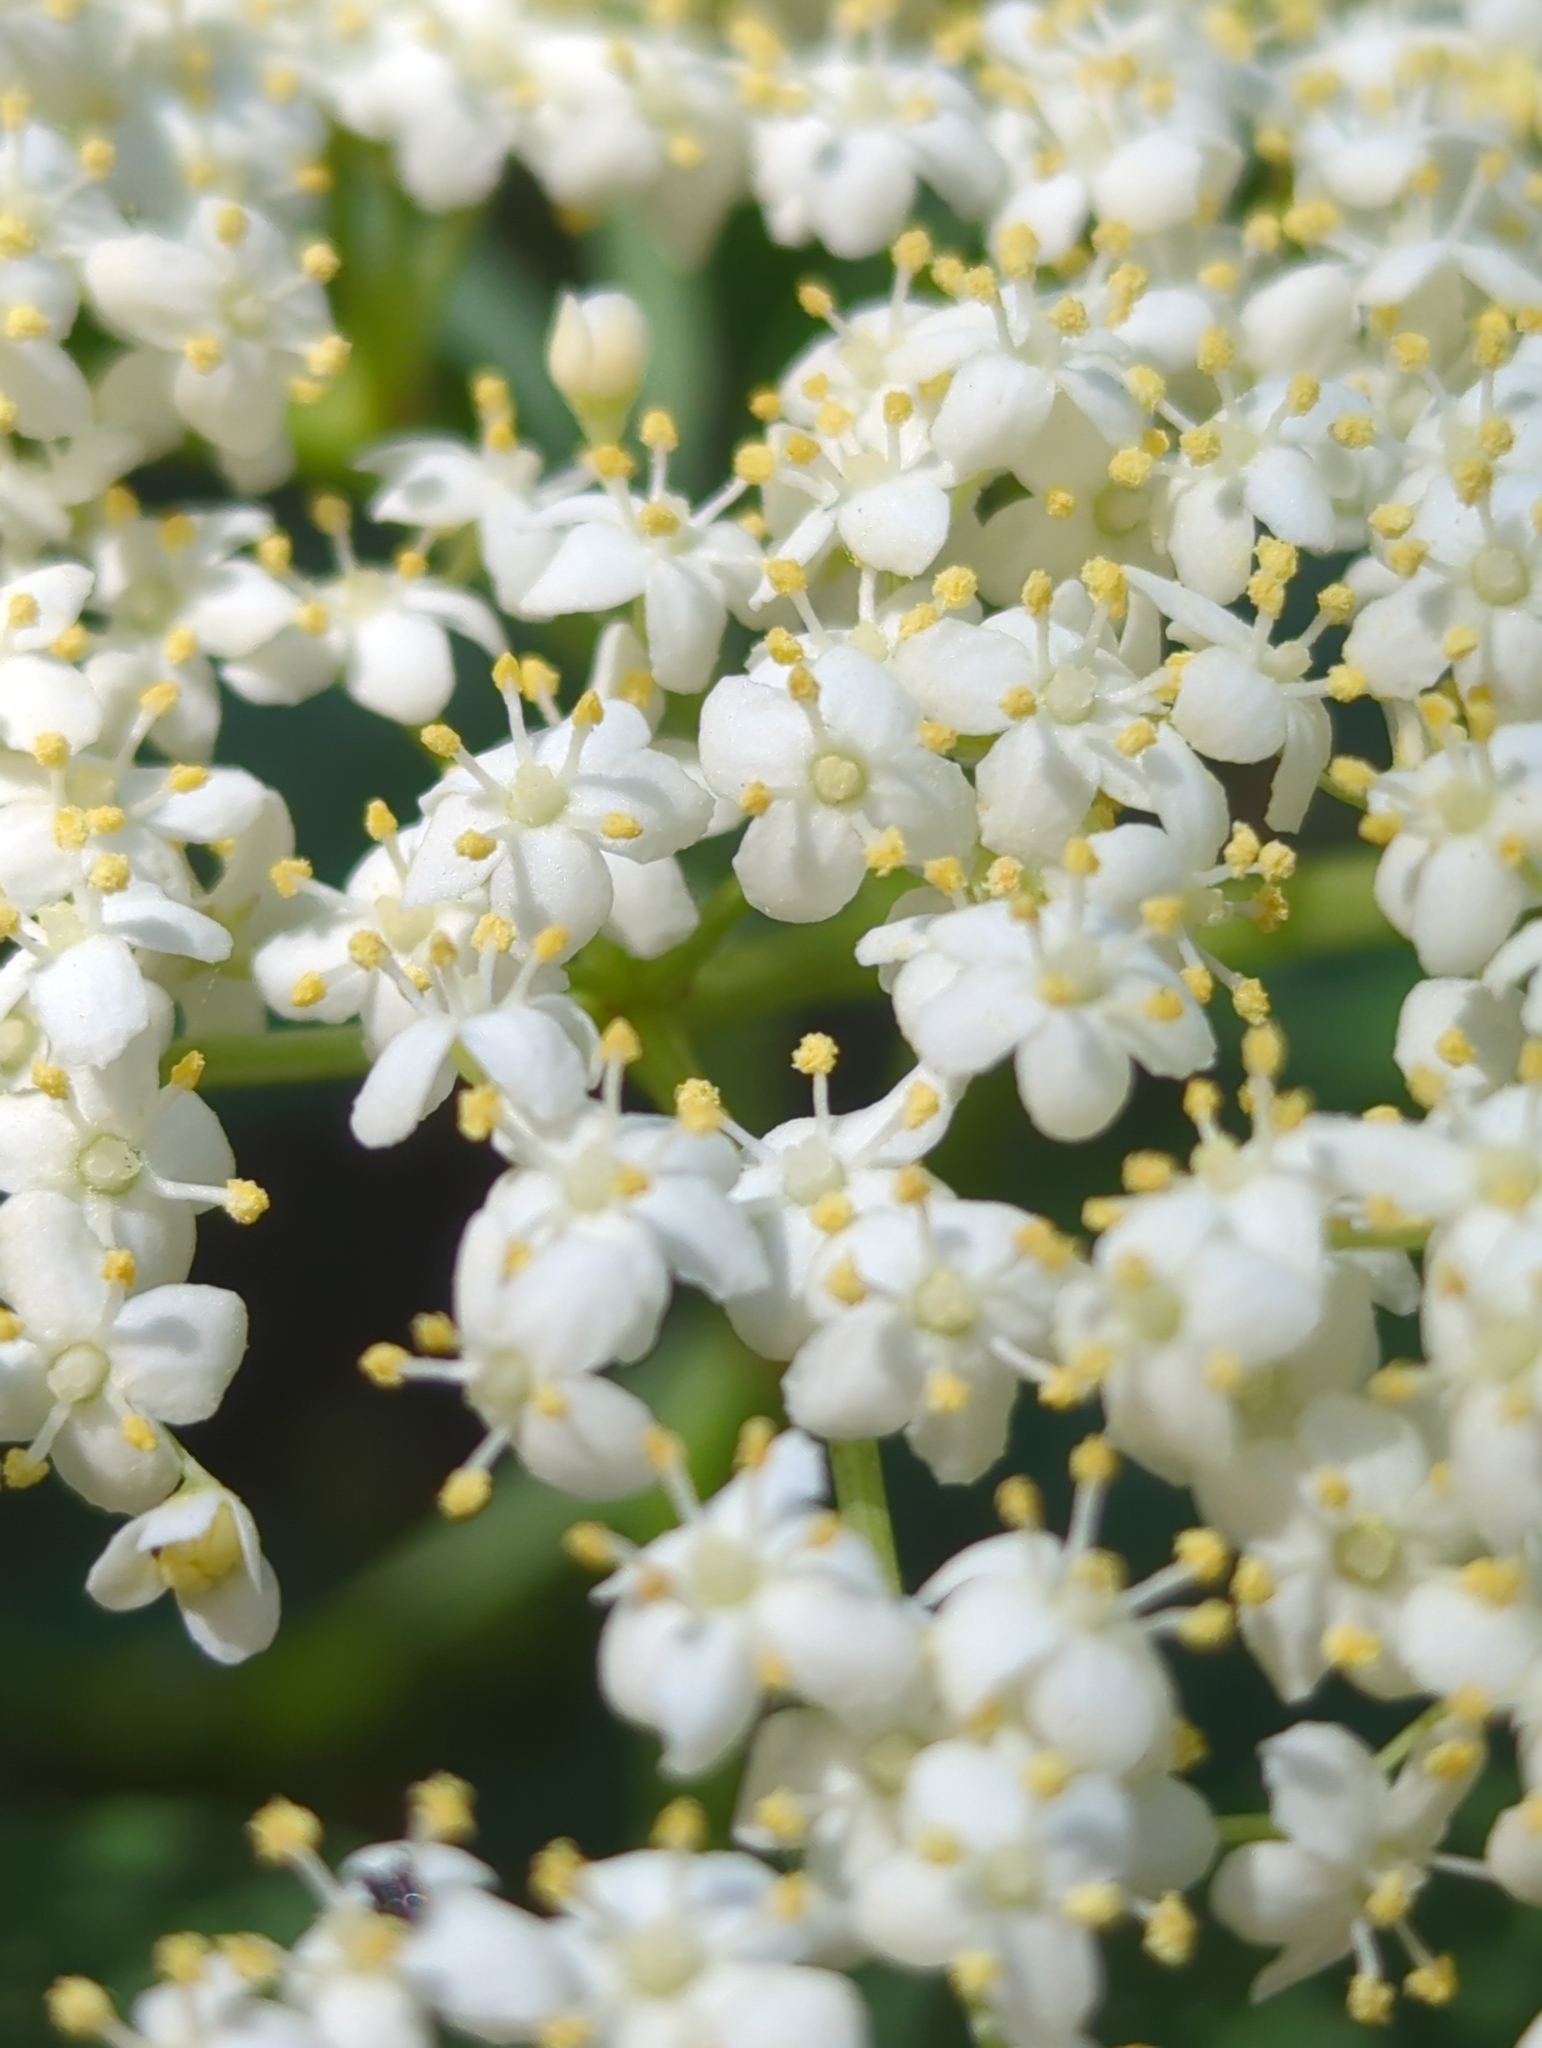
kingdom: Plantae
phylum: Tracheophyta
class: Magnoliopsida
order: Dipsacales
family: Viburnaceae
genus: Sambucus
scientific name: Sambucus nigra
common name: Elder
